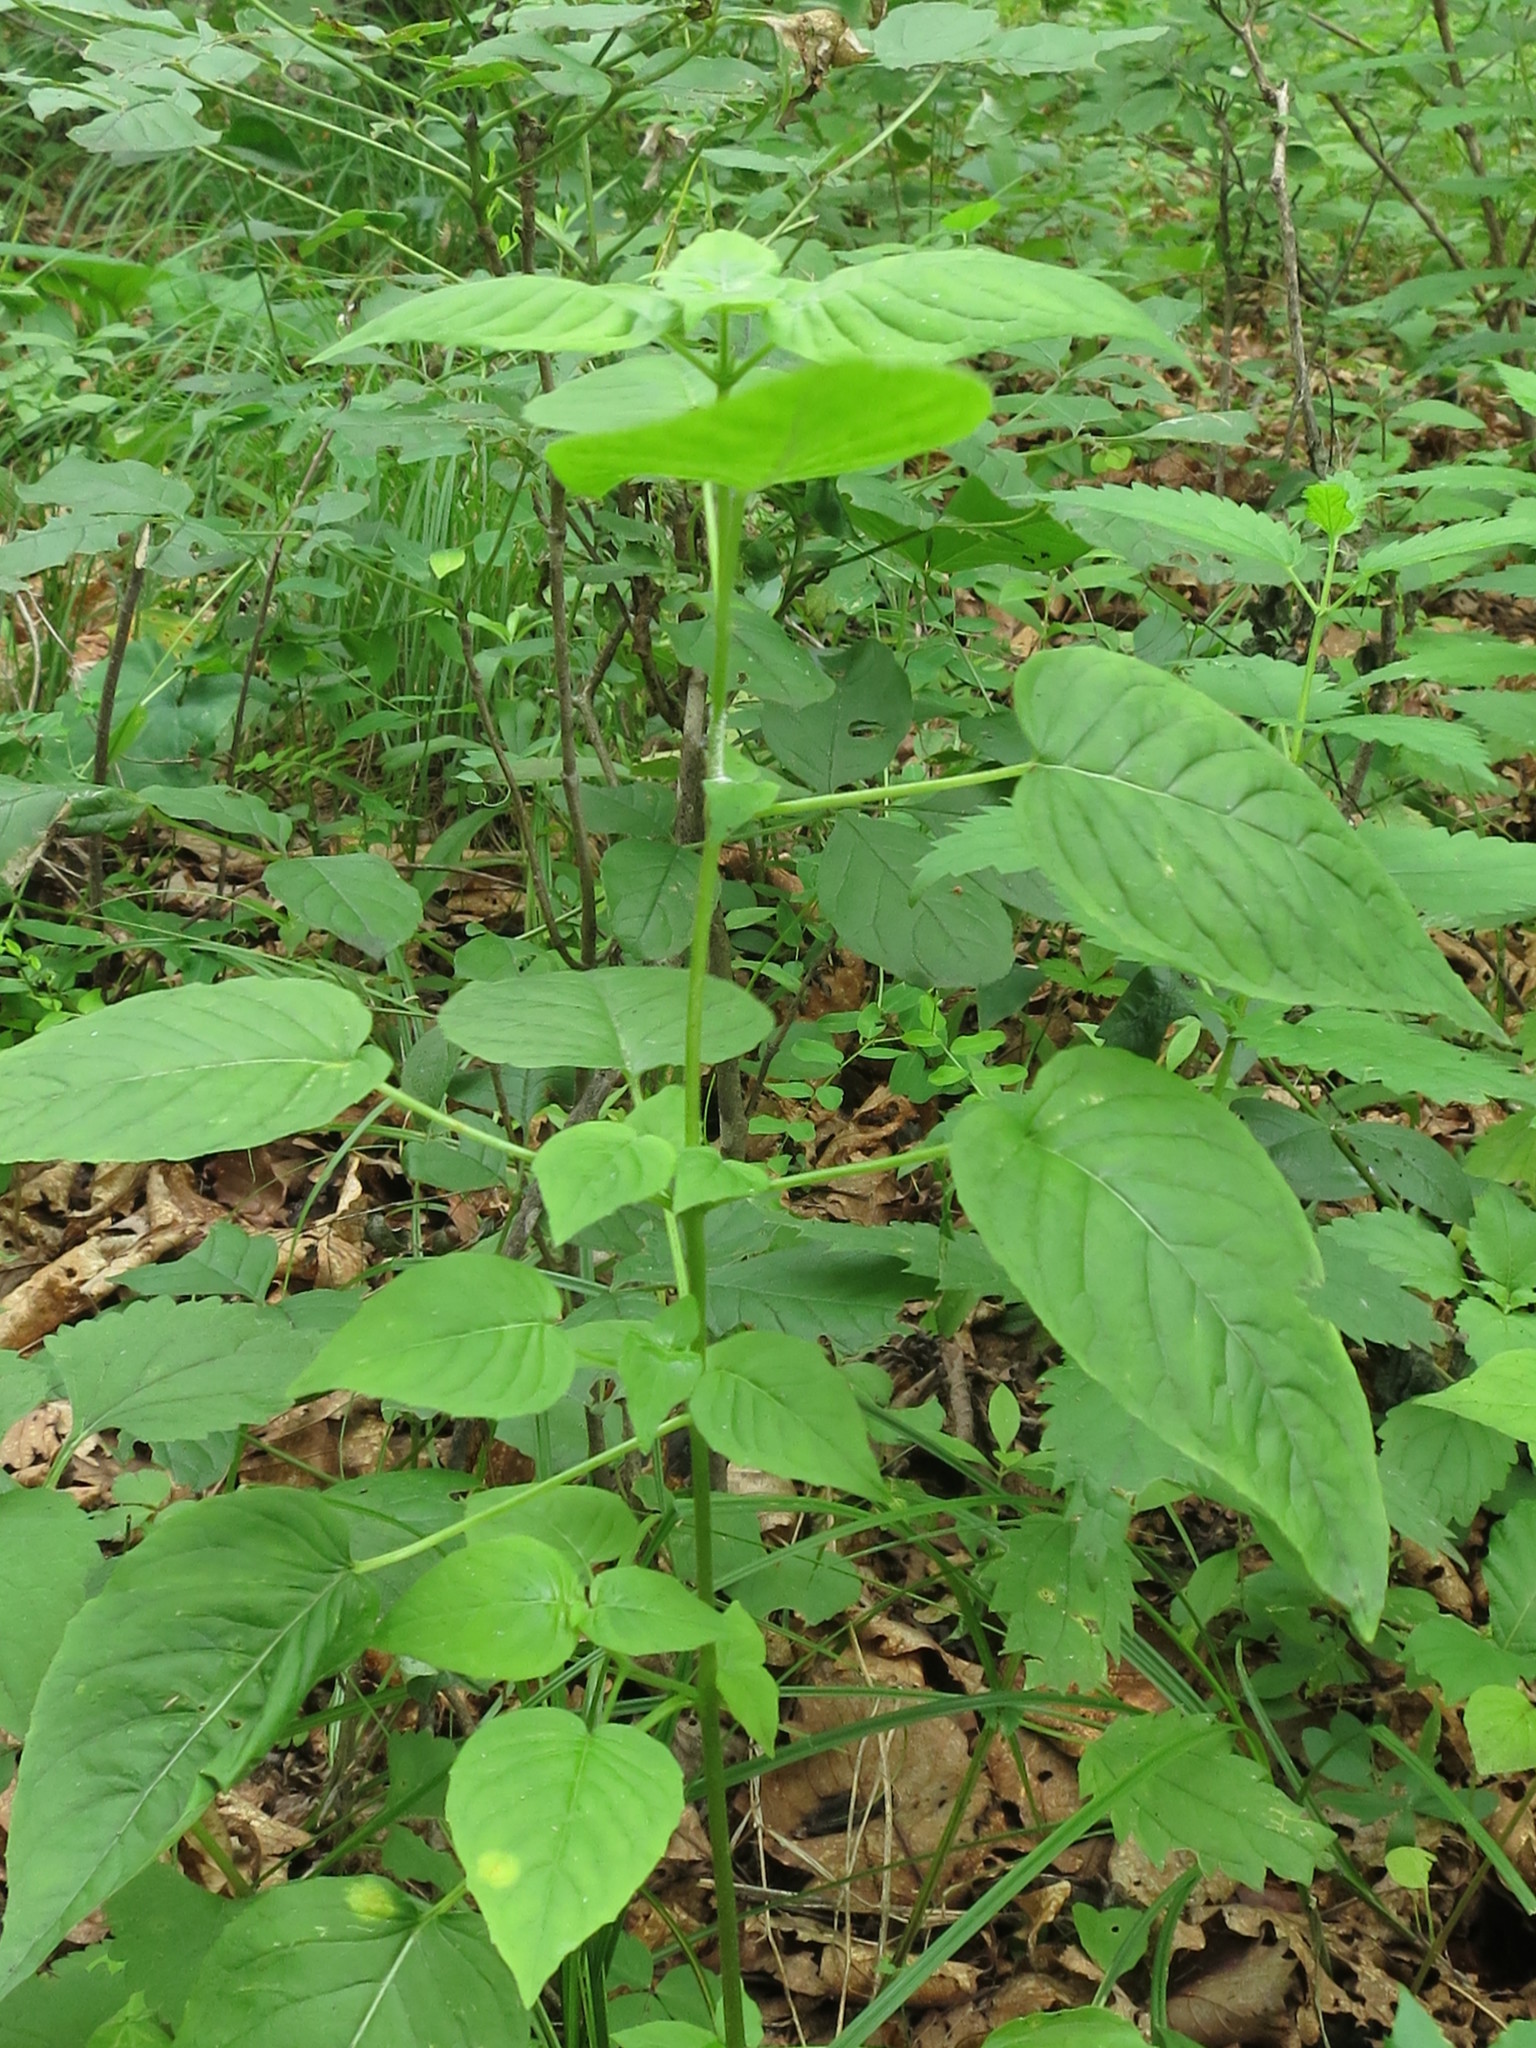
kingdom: Plantae
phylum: Tracheophyta
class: Magnoliopsida
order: Myrtales
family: Onagraceae
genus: Circaea
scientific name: Circaea cordata
